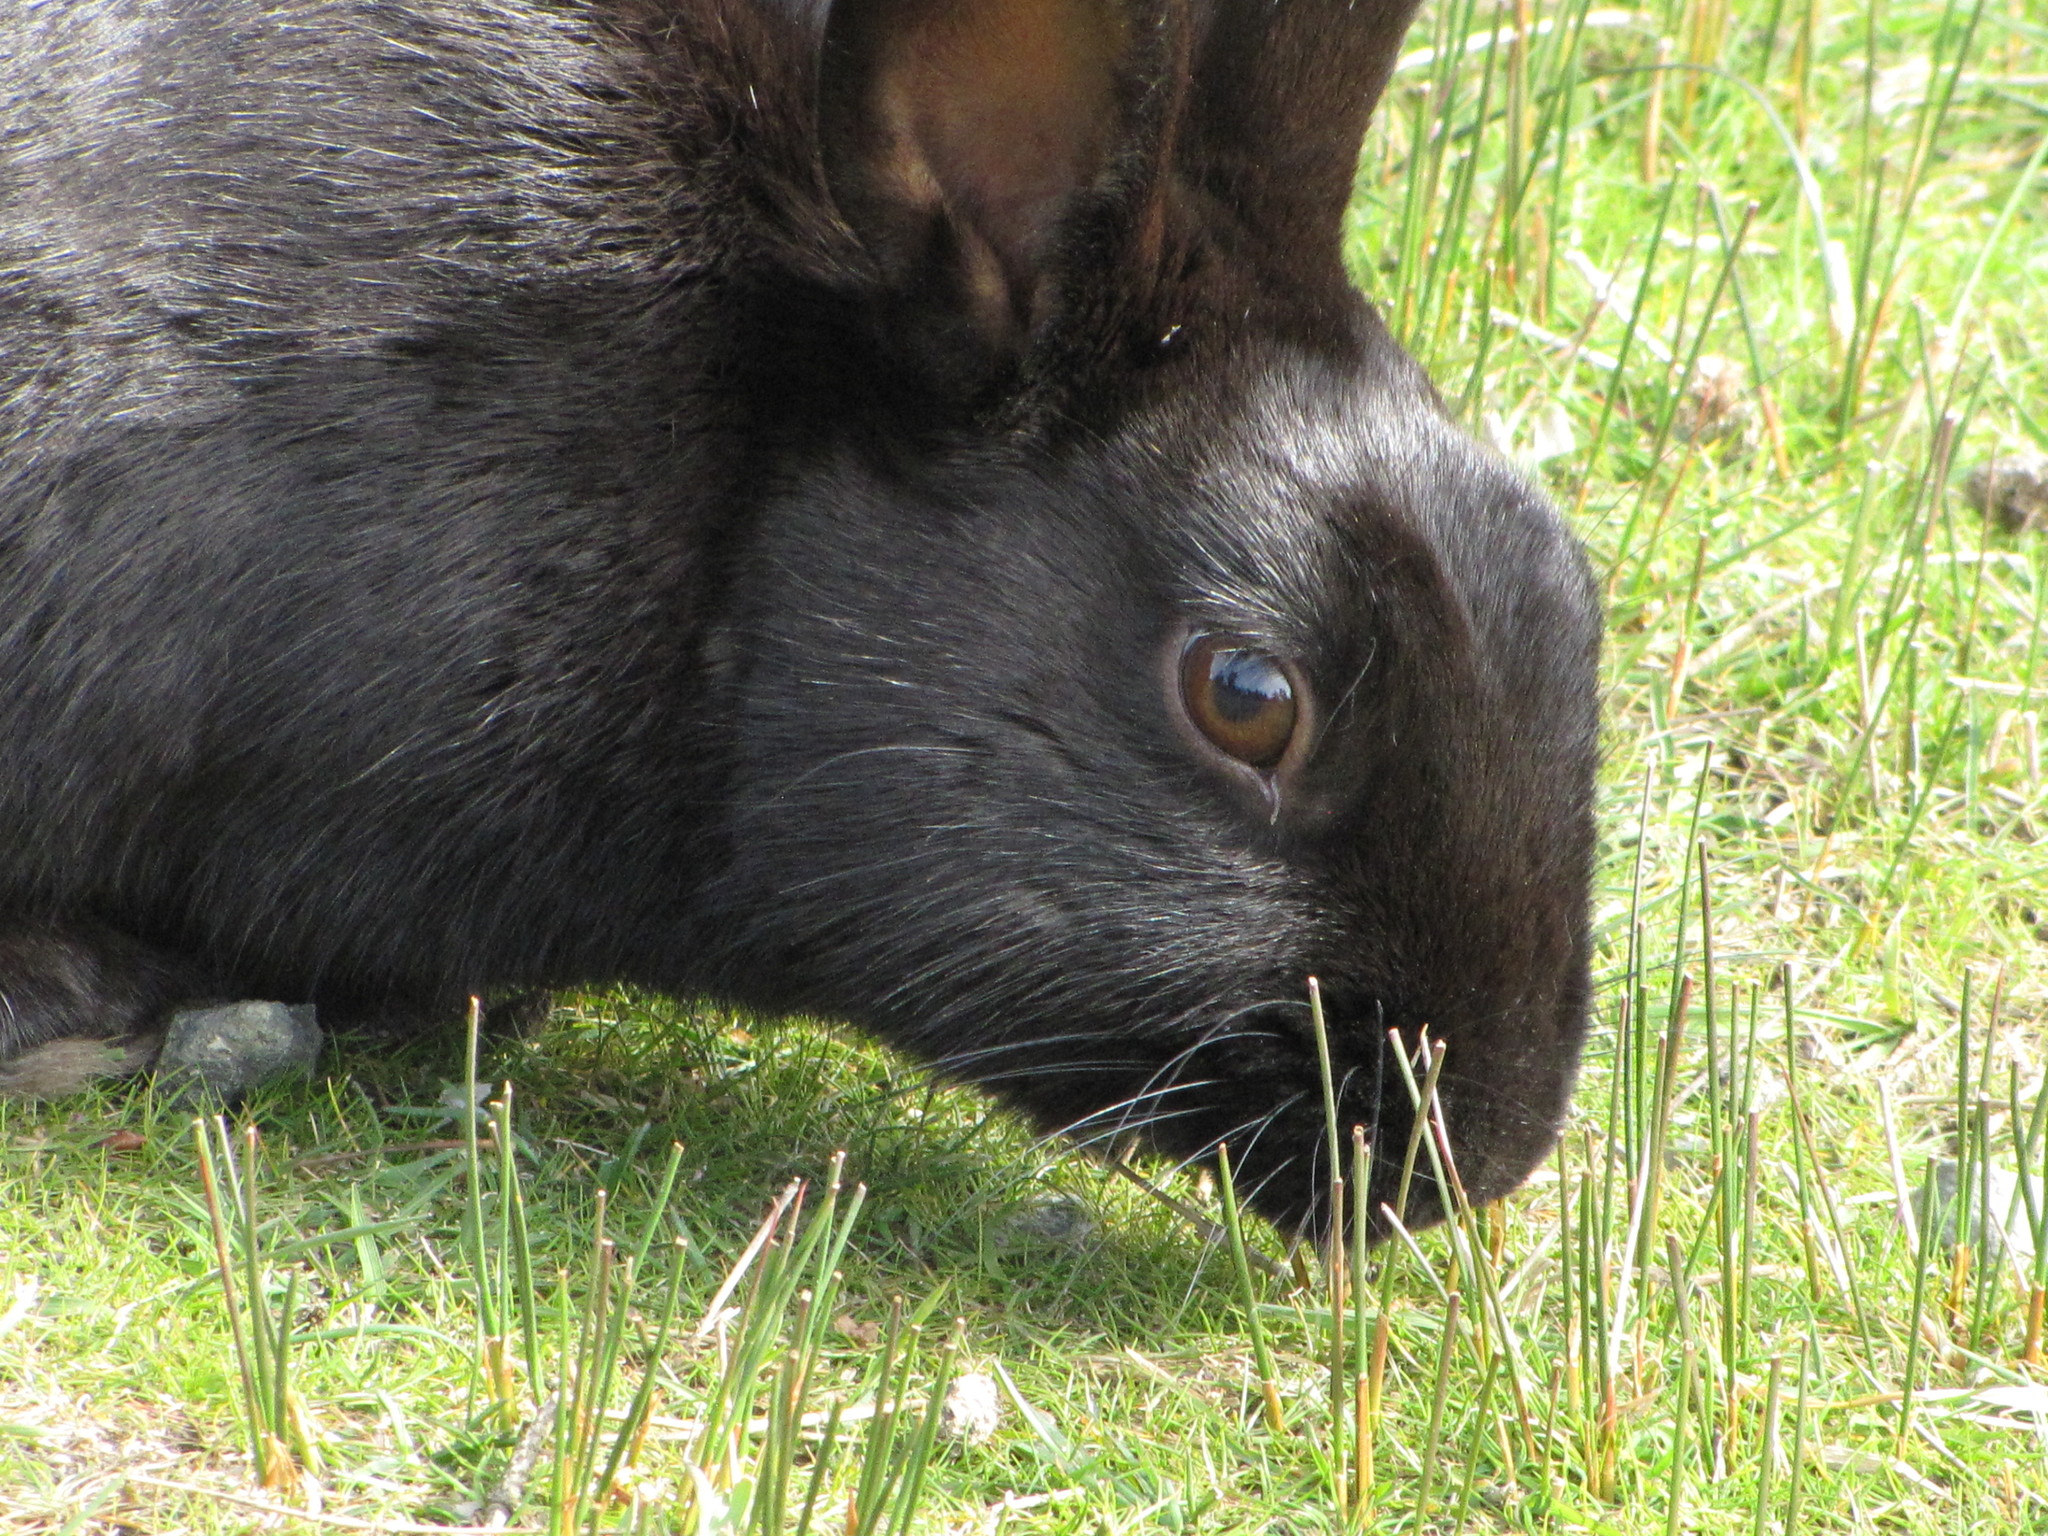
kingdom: Animalia
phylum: Chordata
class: Mammalia
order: Lagomorpha
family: Leporidae
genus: Oryctolagus
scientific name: Oryctolagus cuniculus
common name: European rabbit
